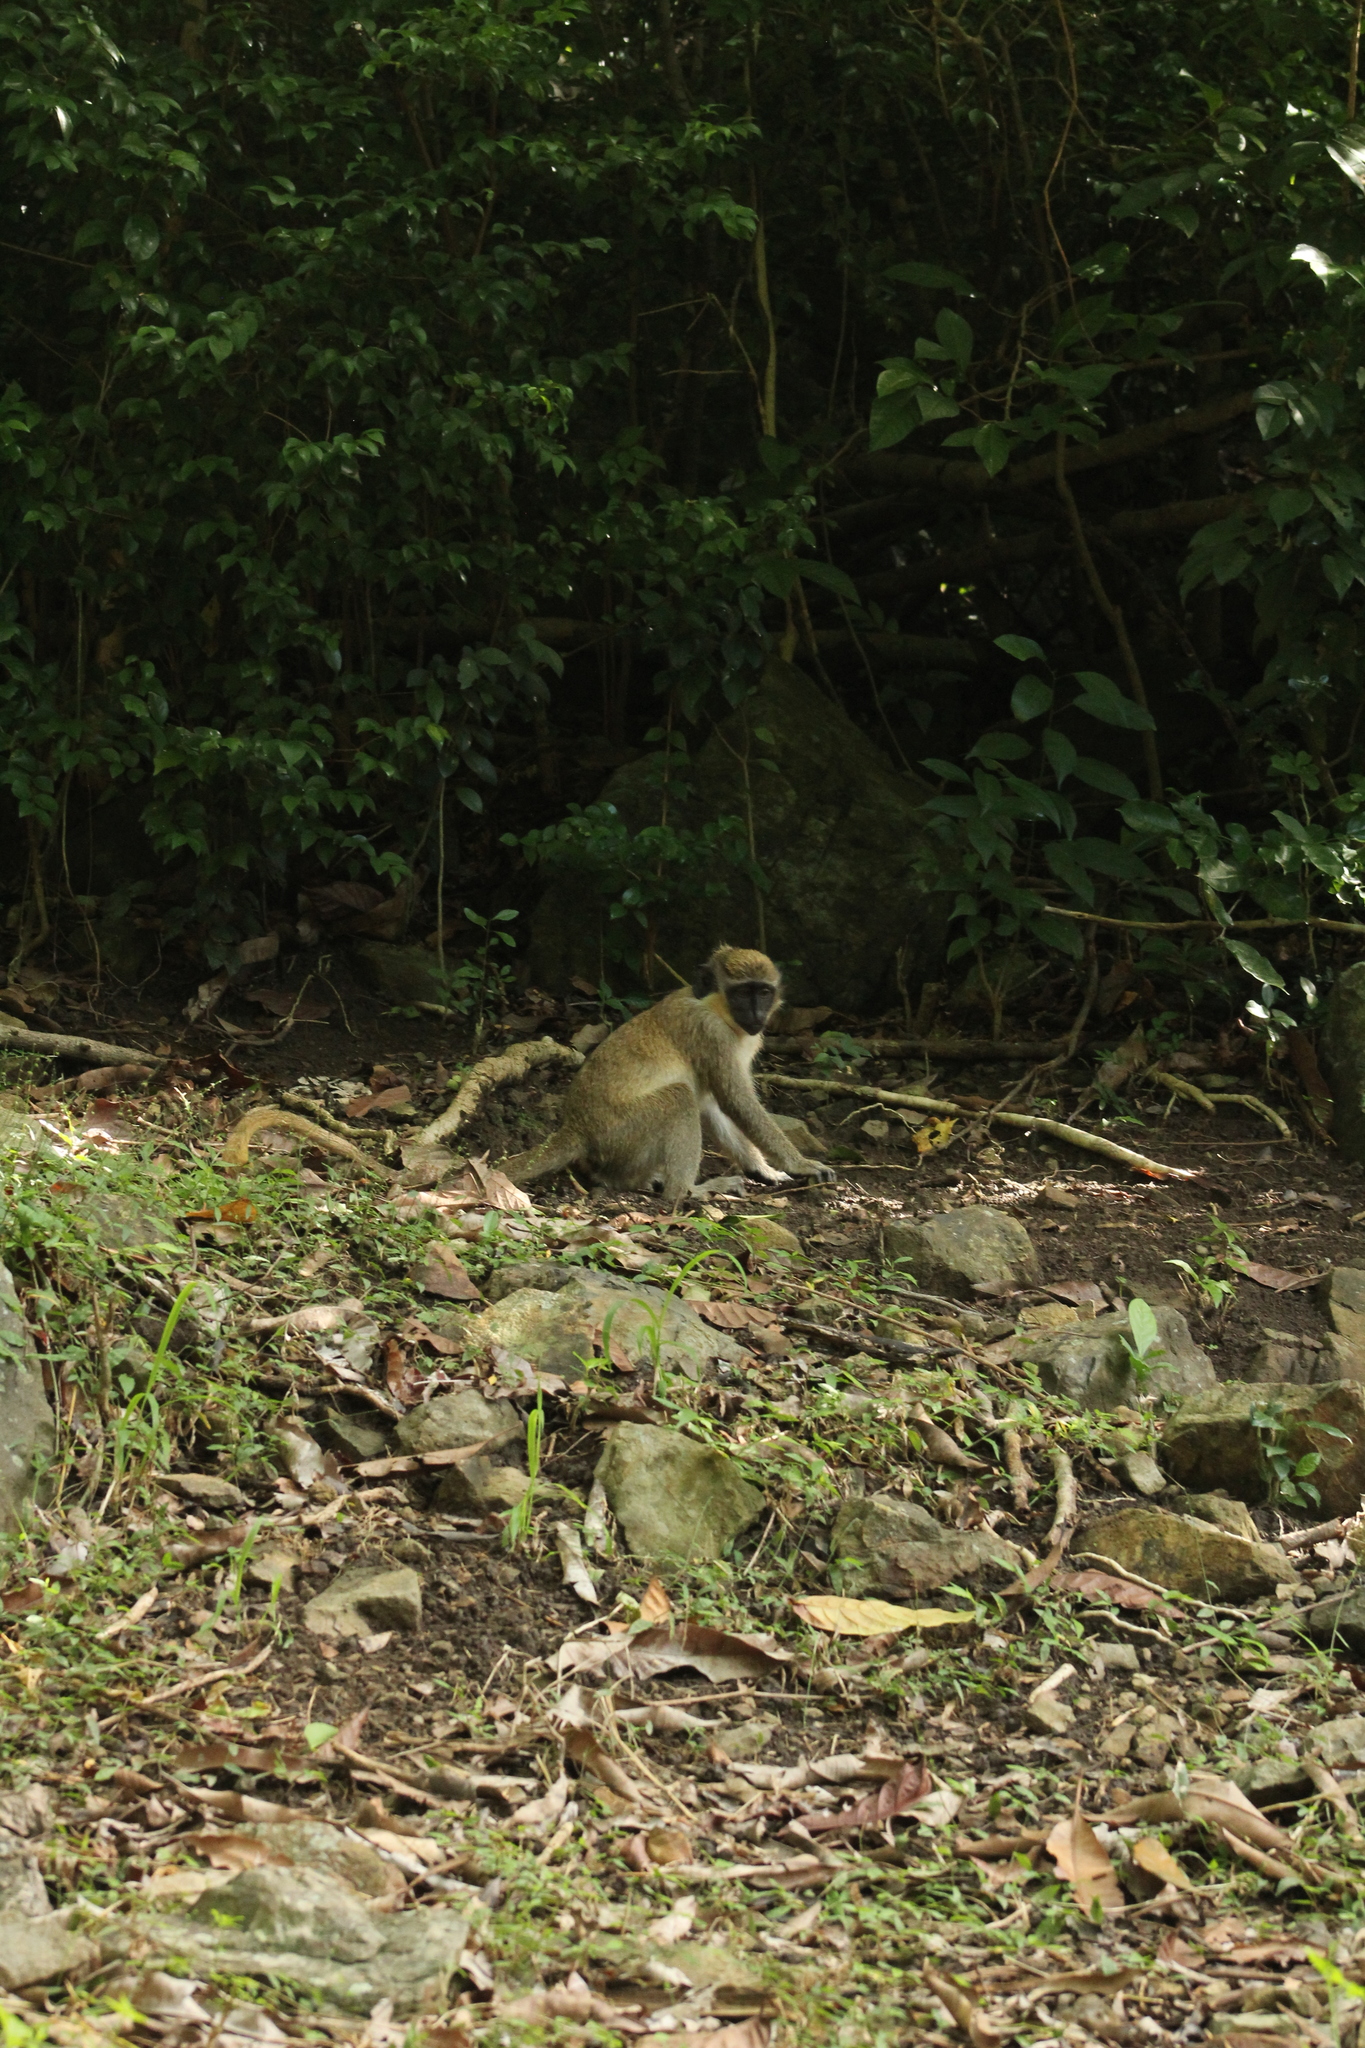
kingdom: Animalia
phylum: Chordata
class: Mammalia
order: Primates
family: Cercopithecidae
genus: Chlorocebus
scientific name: Chlorocebus sabaeus
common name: Green monkey
